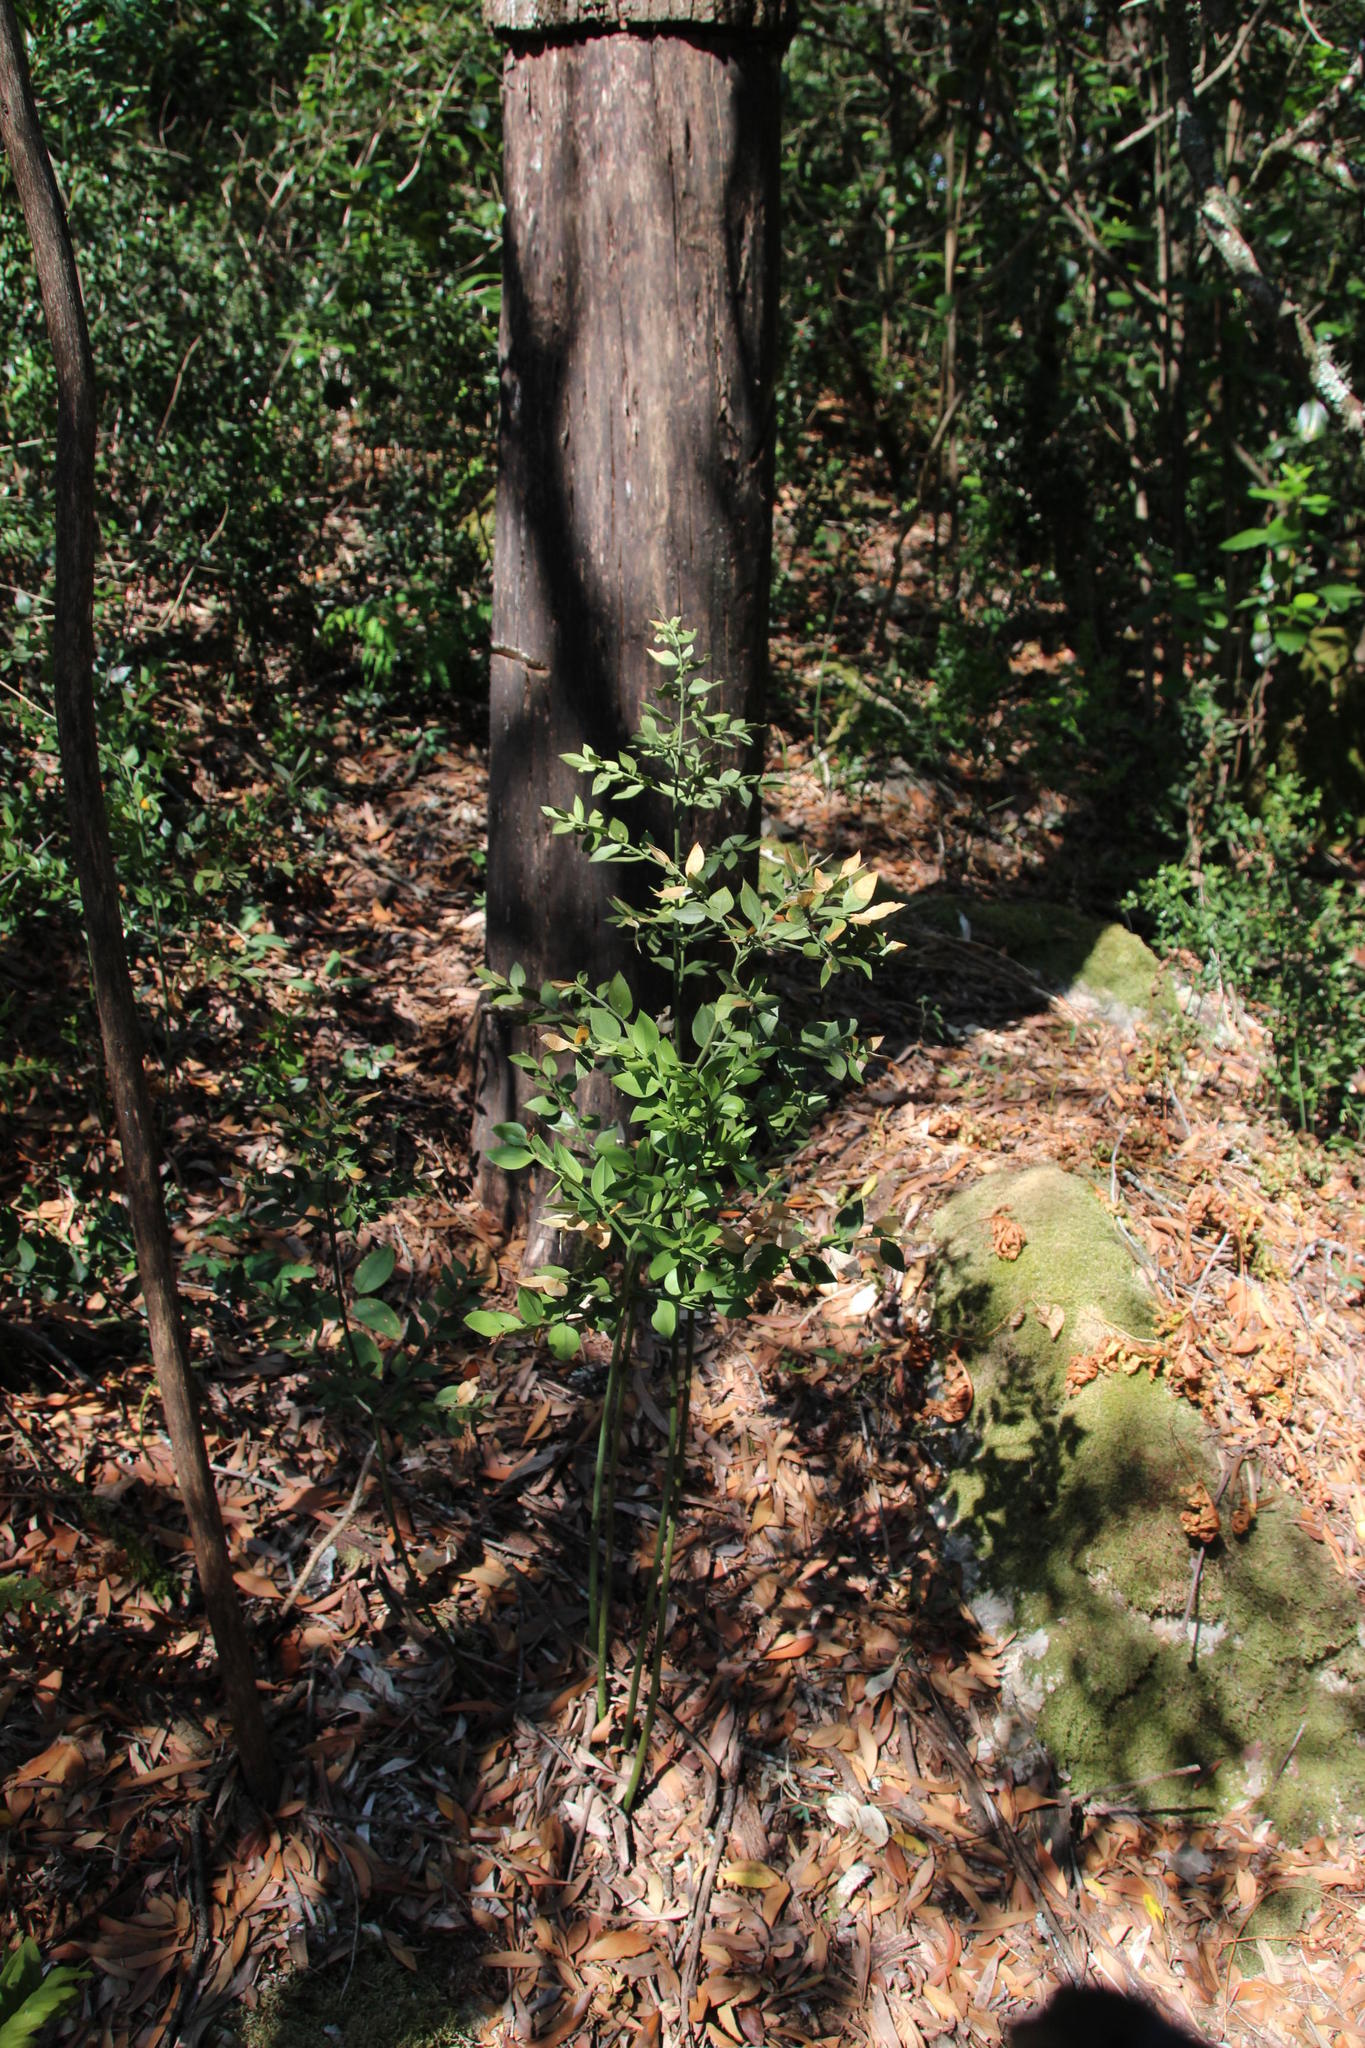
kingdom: Plantae
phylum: Tracheophyta
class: Liliopsida
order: Asparagales
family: Asparagaceae
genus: Ruscus
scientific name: Ruscus aculeatus
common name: Butcher's-broom
